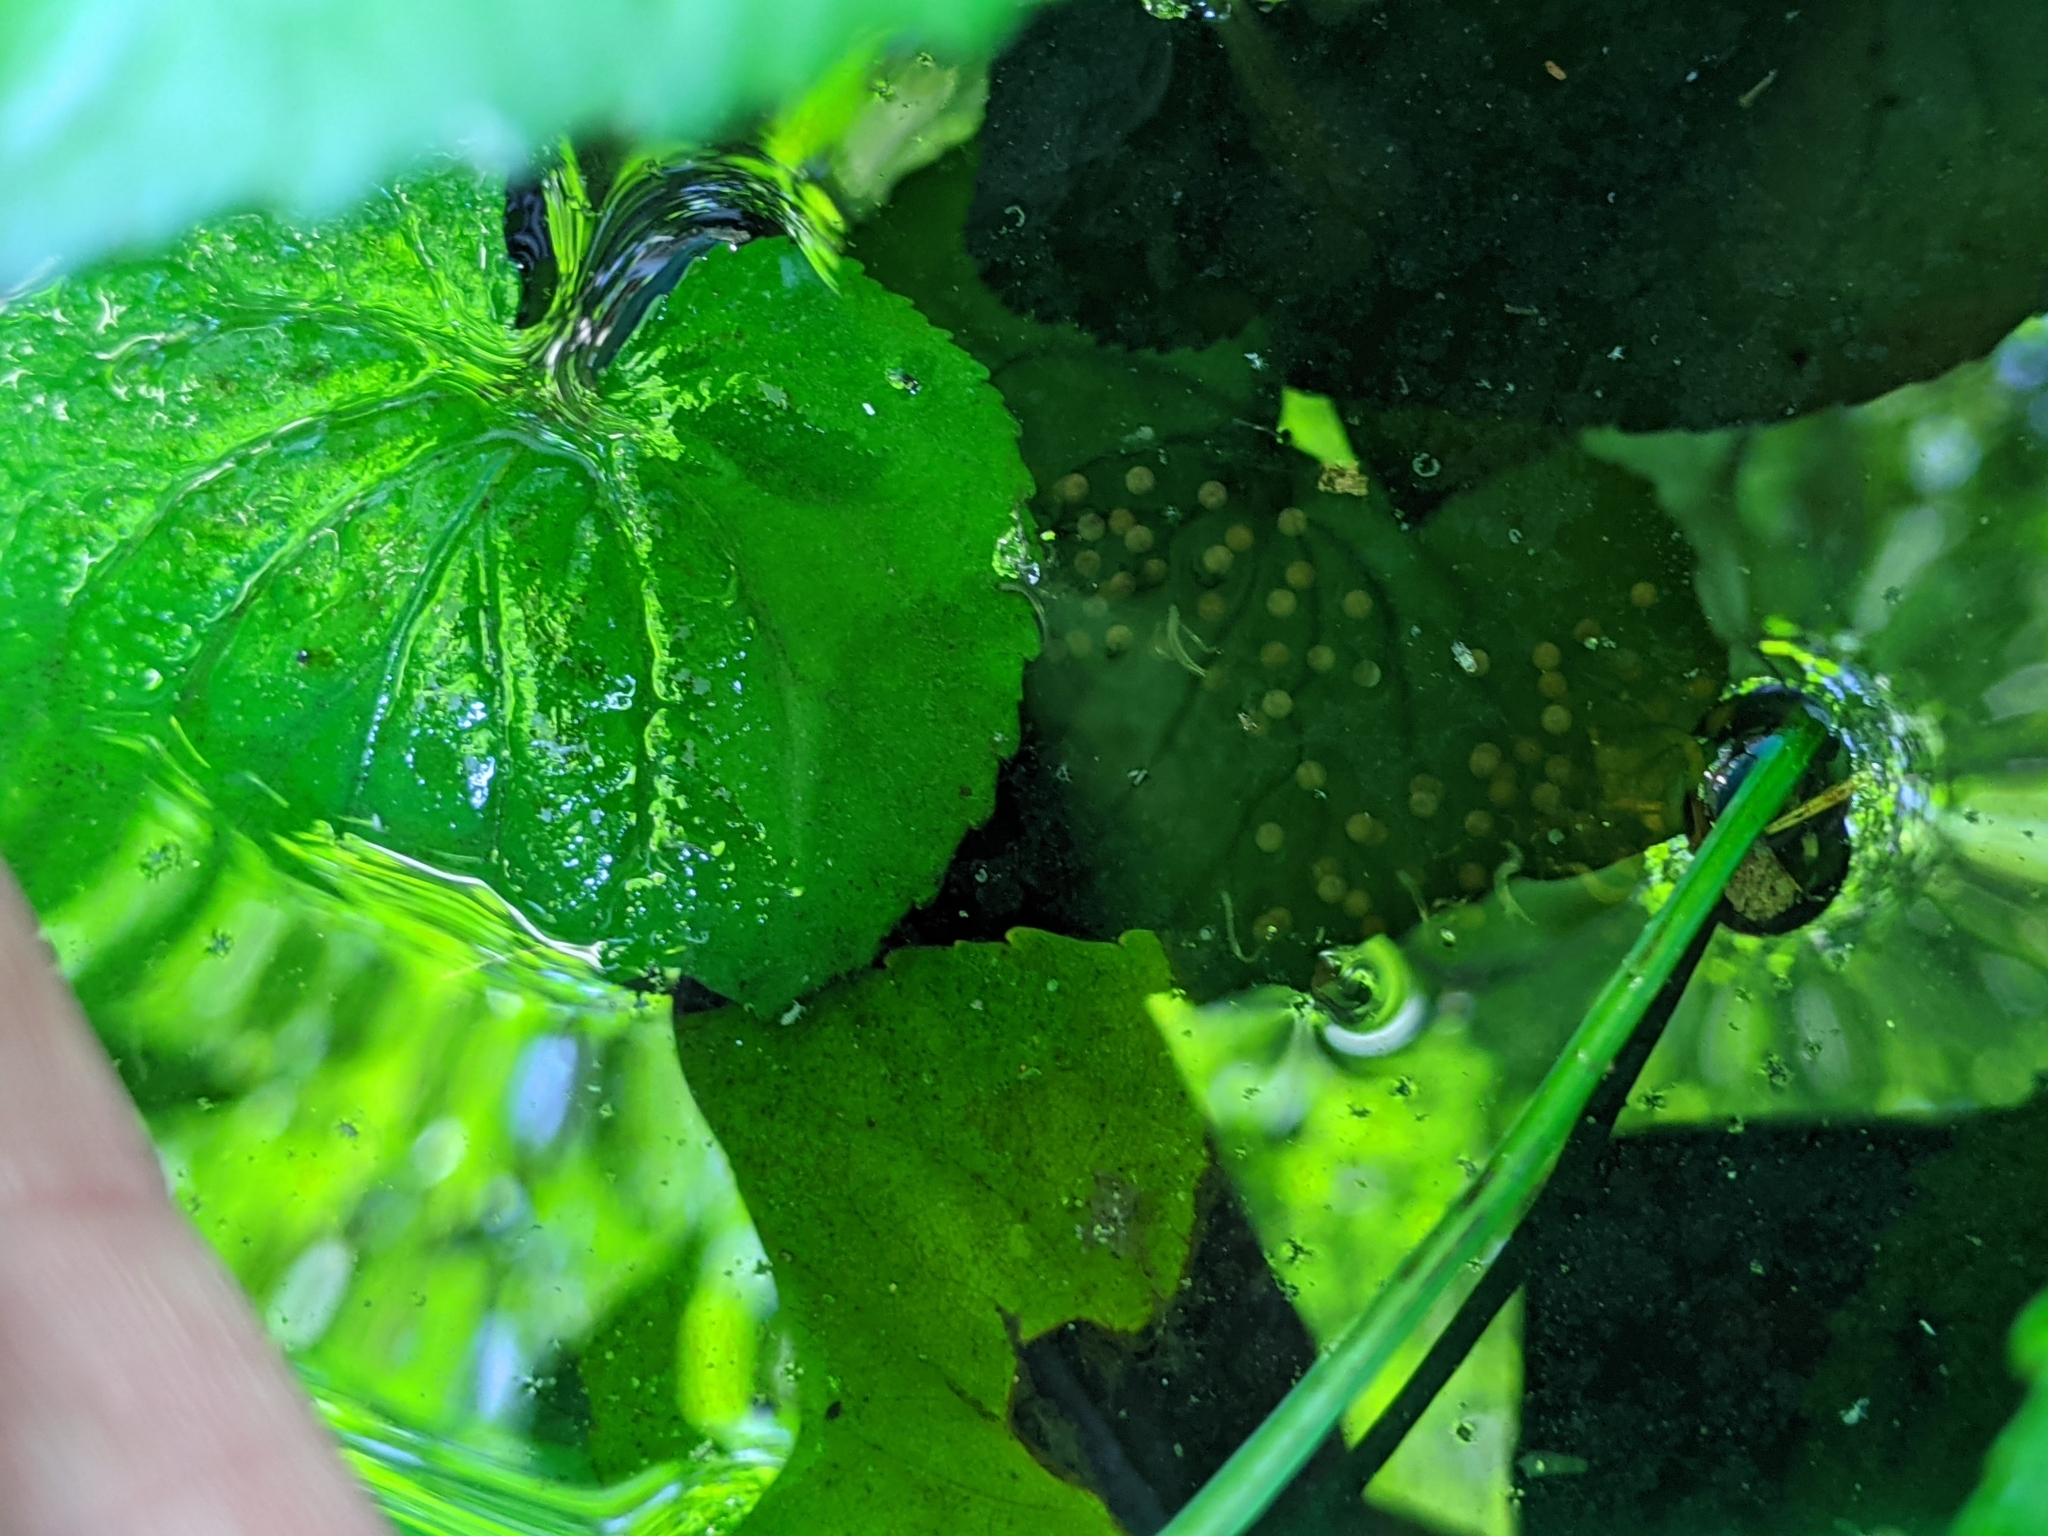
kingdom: Animalia
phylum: Chordata
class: Amphibia
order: Anura
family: Hylidae
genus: Hyla
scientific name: Hyla
